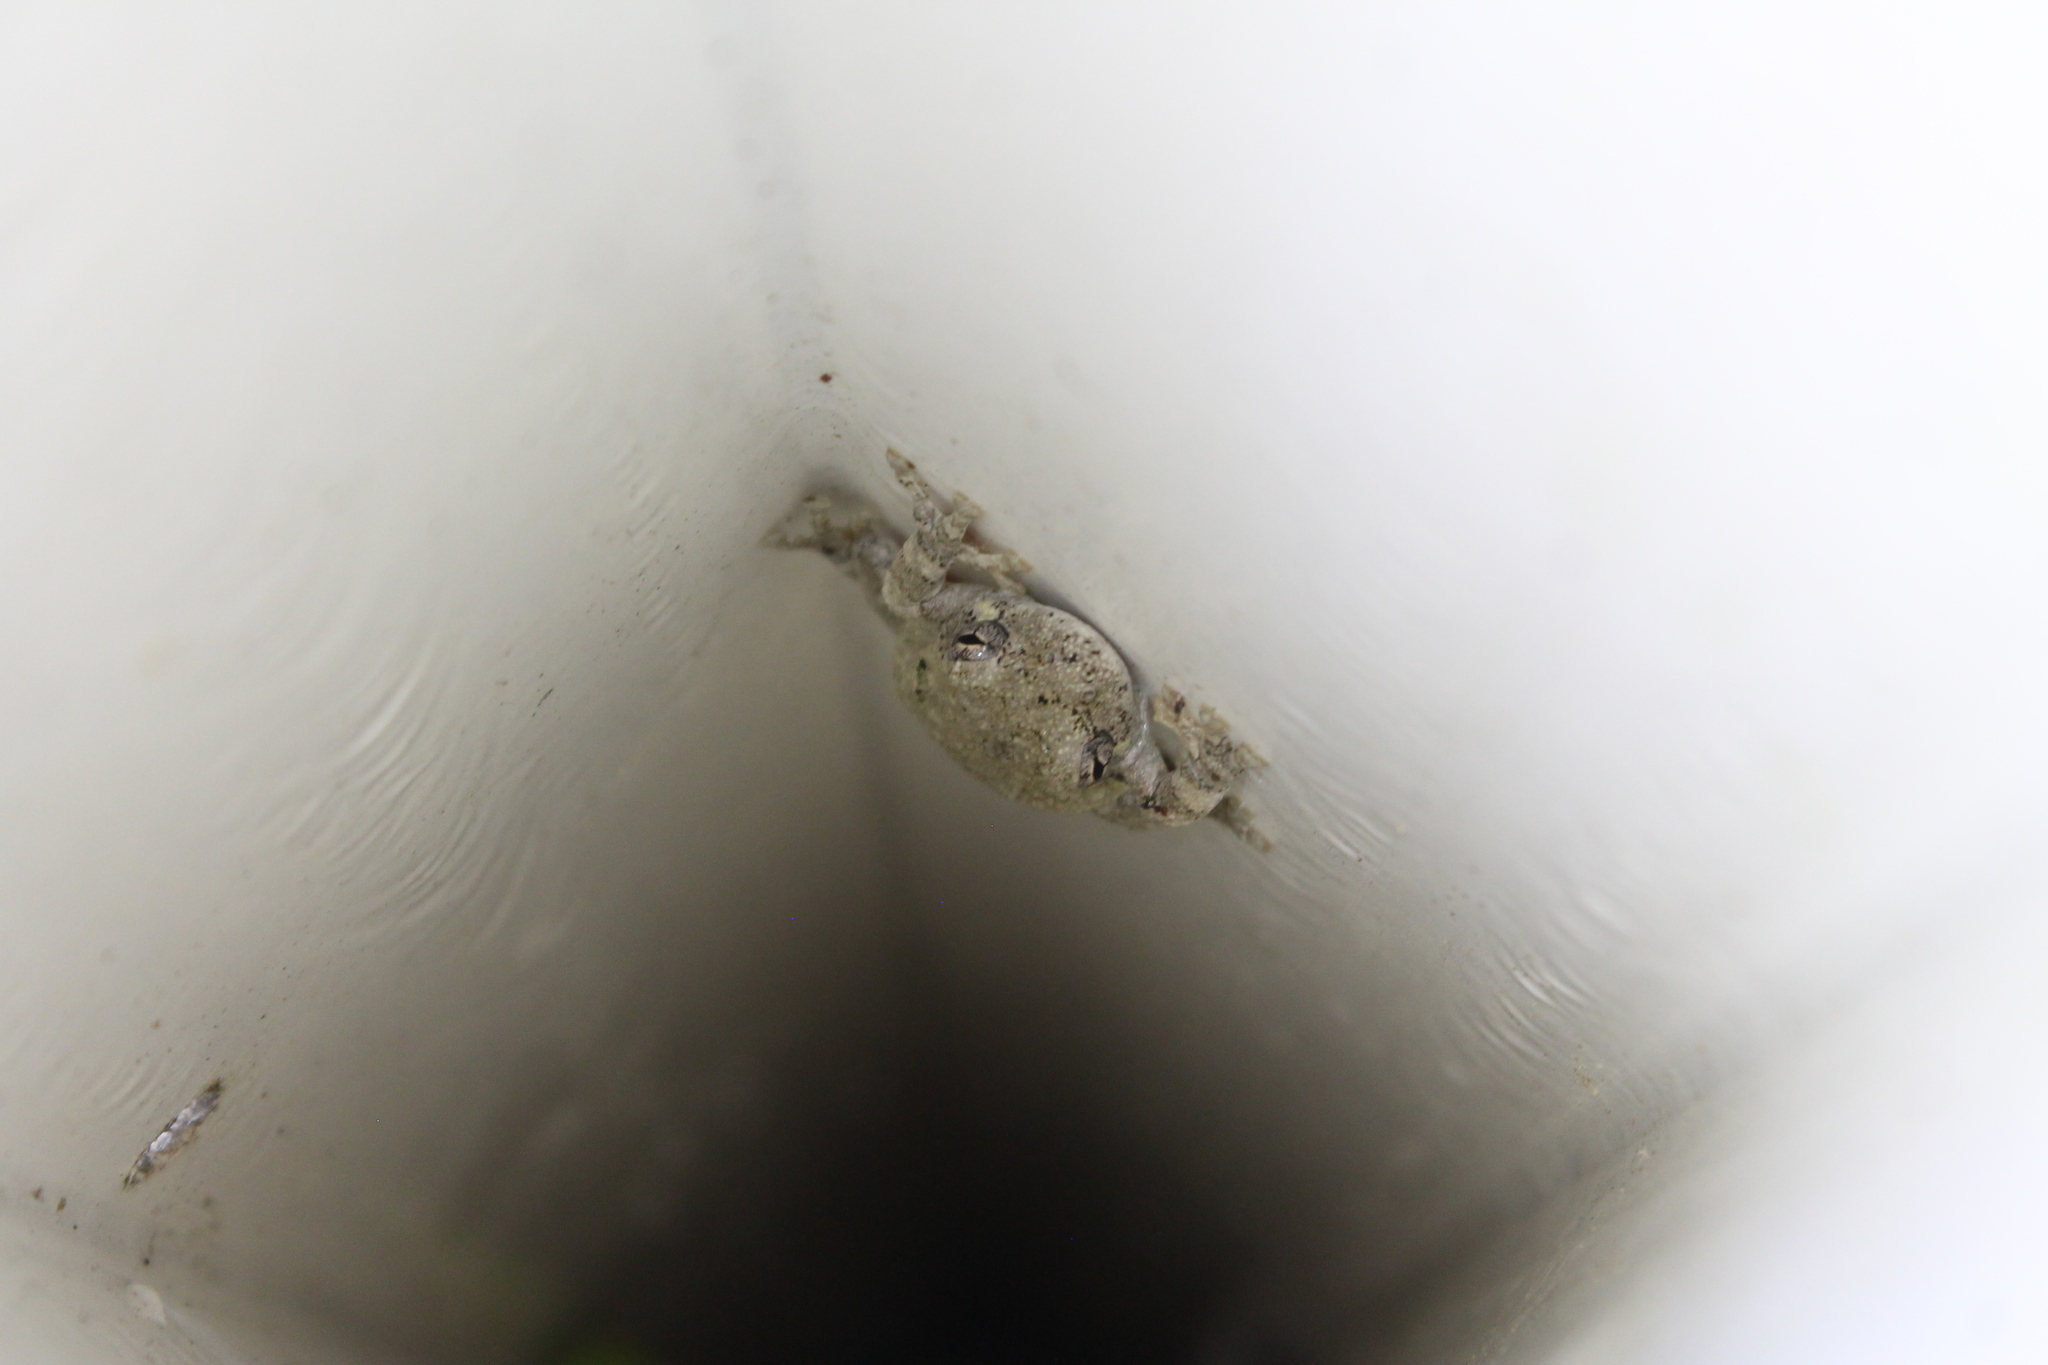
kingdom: Animalia
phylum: Chordata
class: Amphibia
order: Anura
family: Hylidae
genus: Dryophytes
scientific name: Dryophytes chrysoscelis
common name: Cope's gray treefrog
